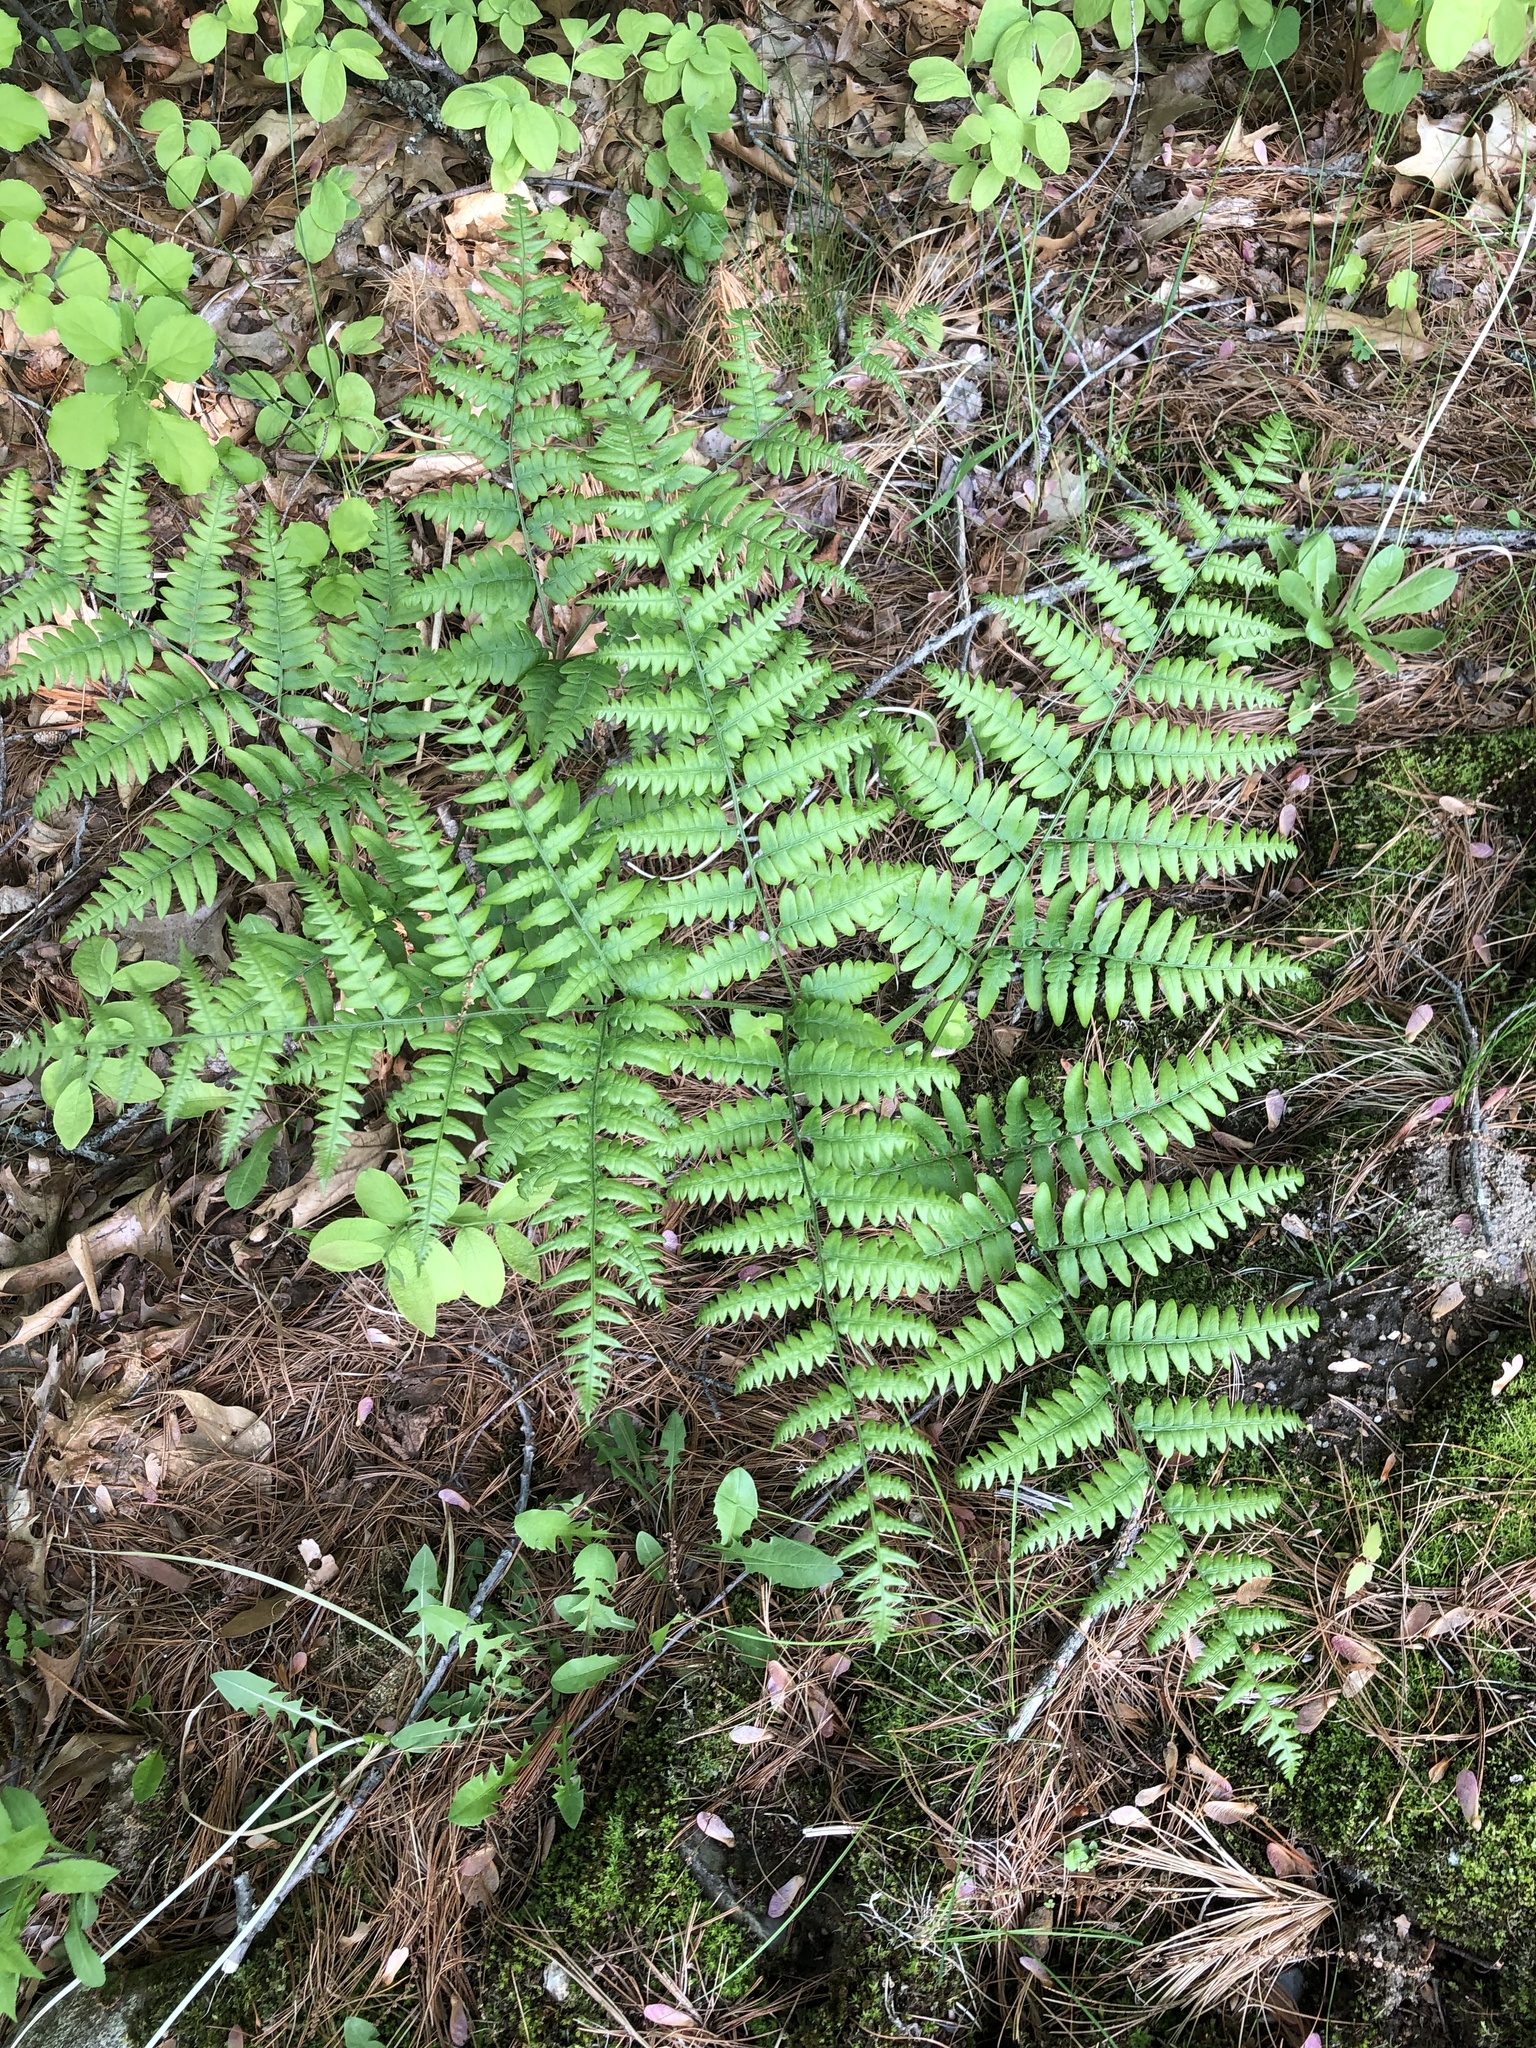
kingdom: Plantae
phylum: Tracheophyta
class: Polypodiopsida
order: Polypodiales
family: Dennstaedtiaceae
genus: Pteridium
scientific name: Pteridium aquilinum
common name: Bracken
